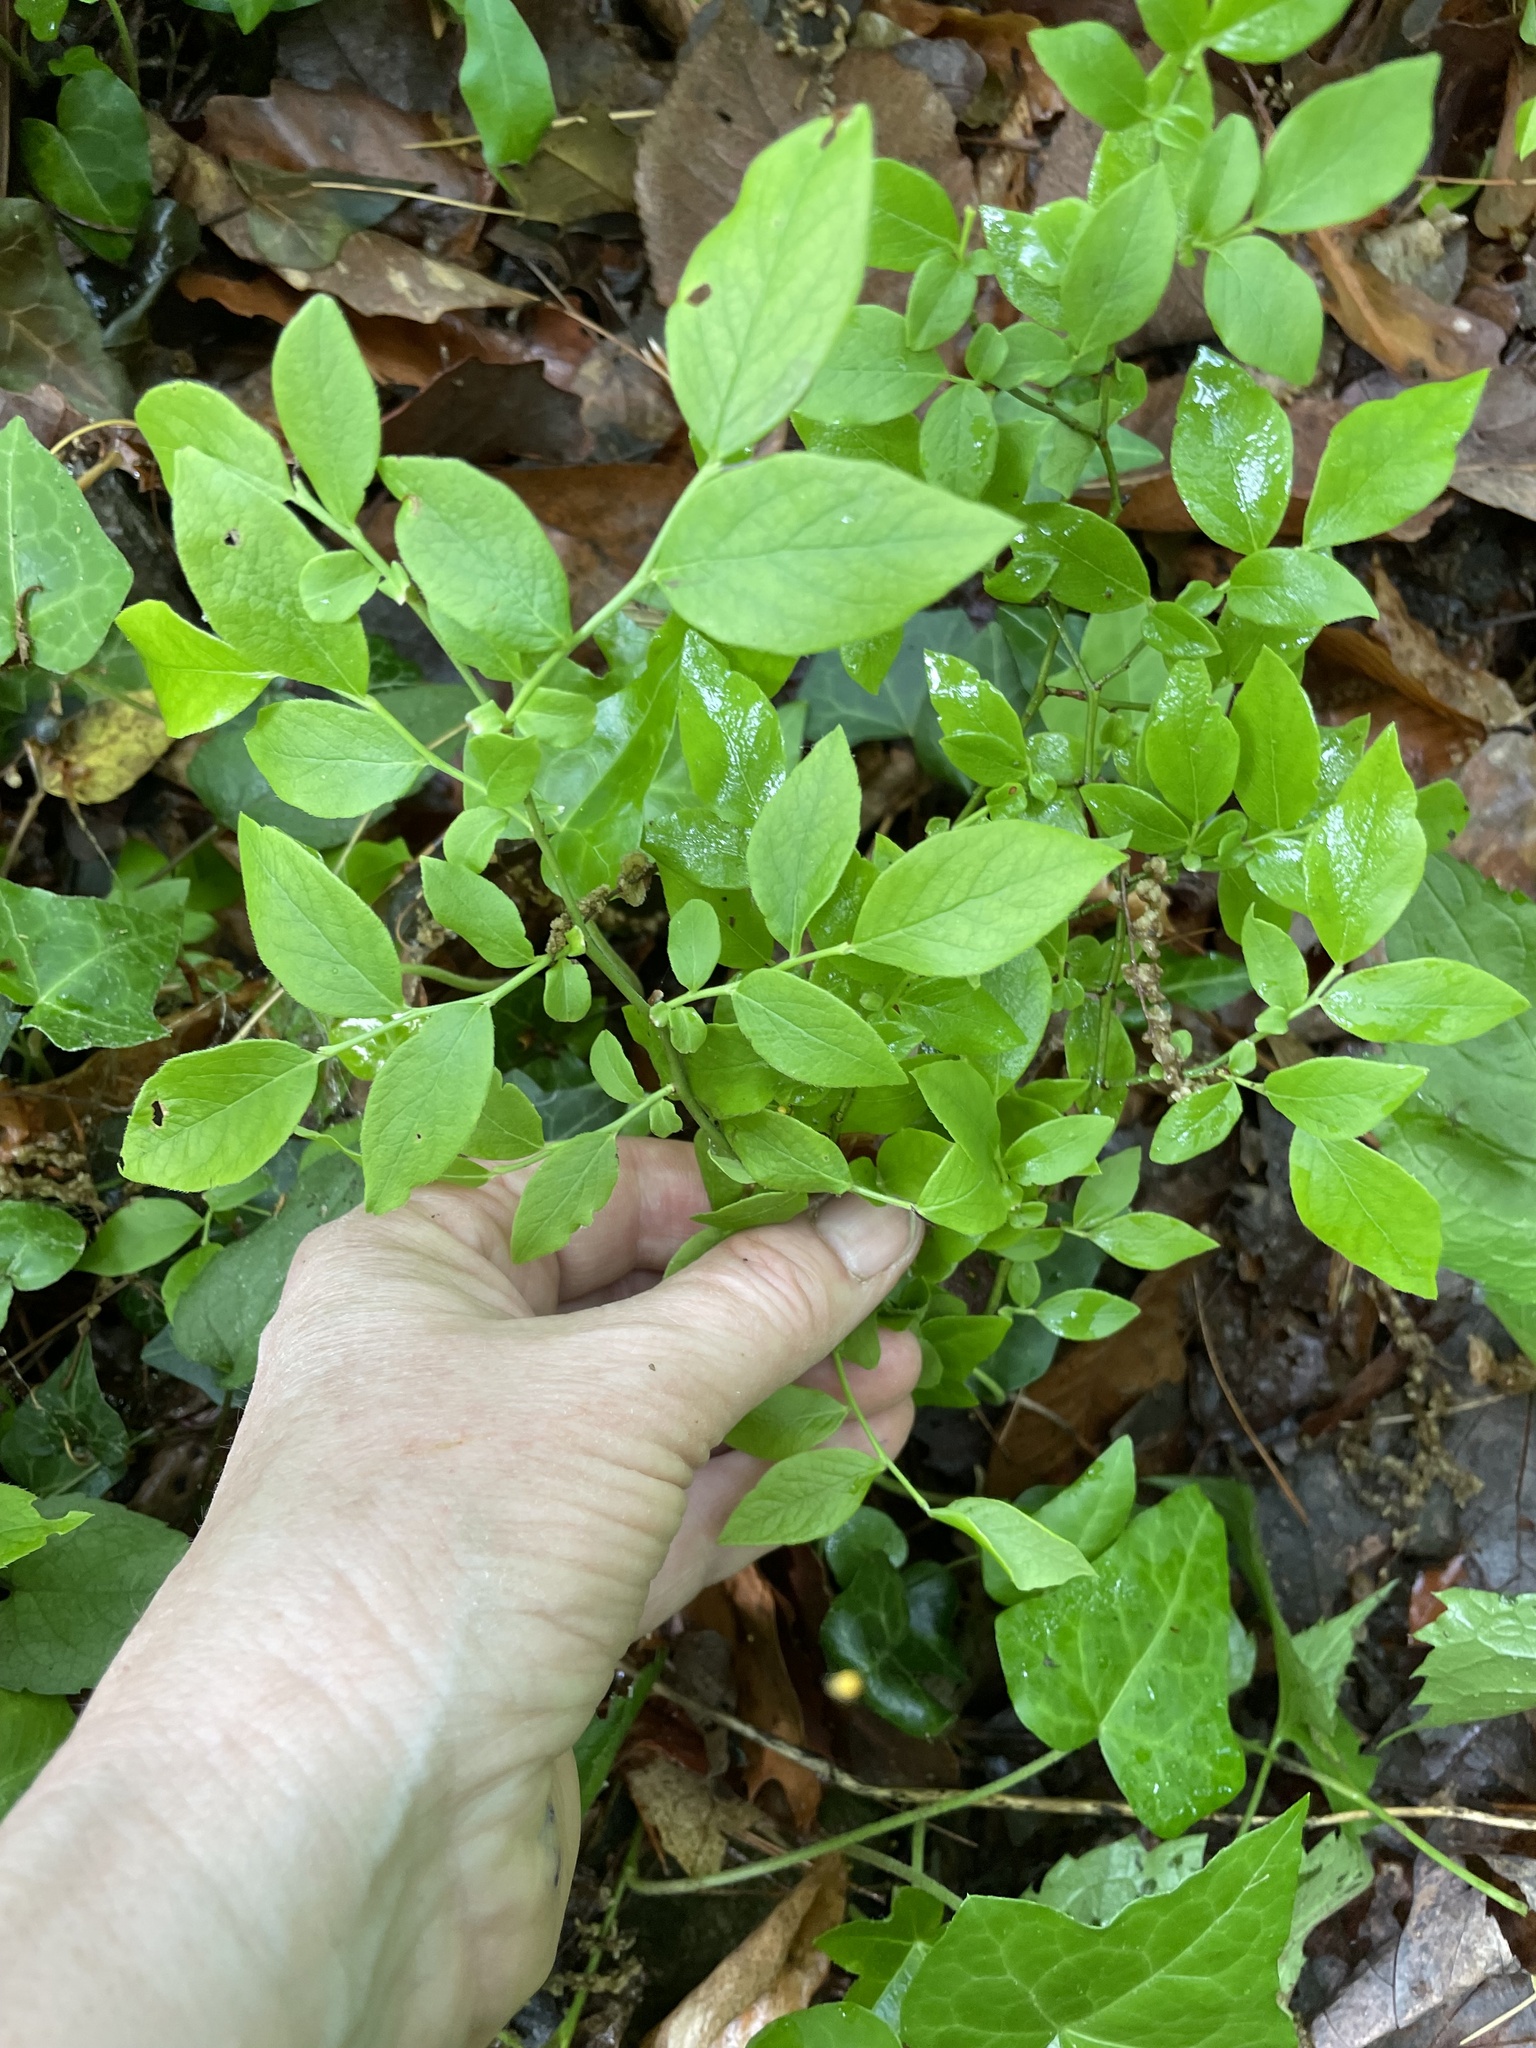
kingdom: Plantae
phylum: Tracheophyta
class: Magnoliopsida
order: Ericales
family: Ericaceae
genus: Vaccinium
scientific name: Vaccinium pallidum
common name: Blue ridge blueberry
